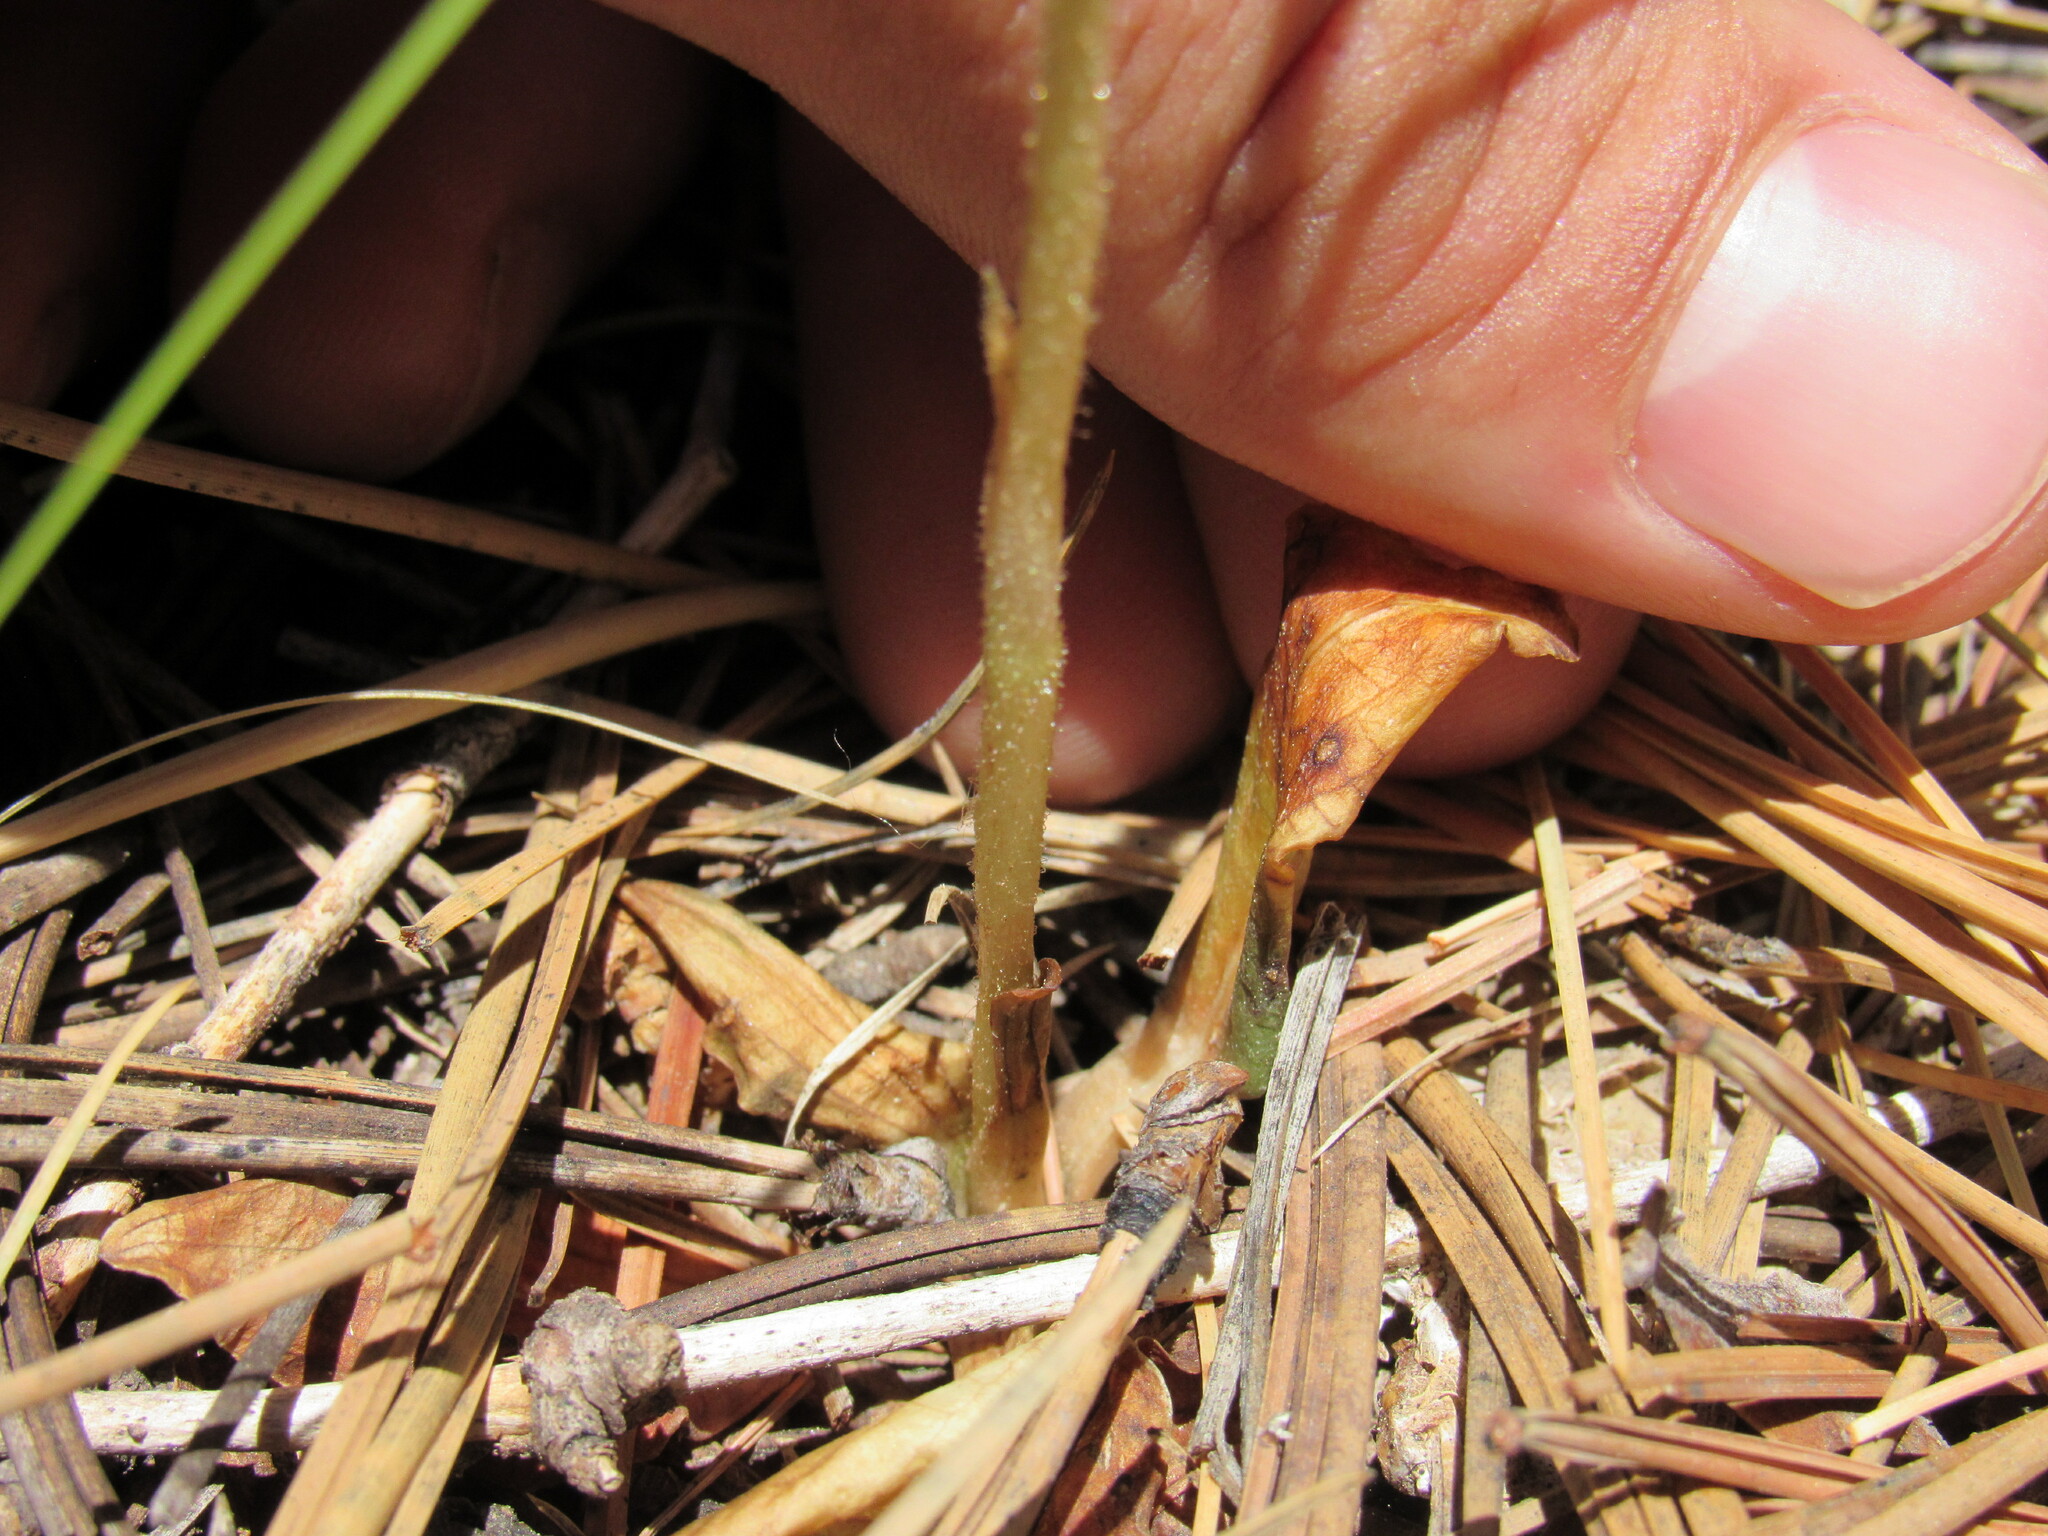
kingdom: Plantae
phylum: Tracheophyta
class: Liliopsida
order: Asparagales
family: Orchidaceae
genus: Goodyera
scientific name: Goodyera oblongifolia
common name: Giant rattlesnake-plantain
